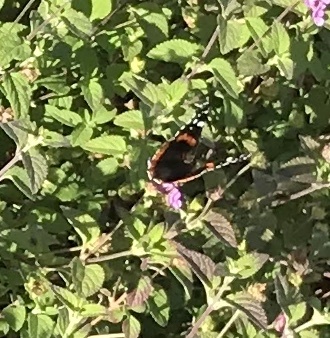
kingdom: Animalia
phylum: Arthropoda
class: Insecta
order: Lepidoptera
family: Nymphalidae
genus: Vanessa
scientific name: Vanessa atalanta
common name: Red admiral
